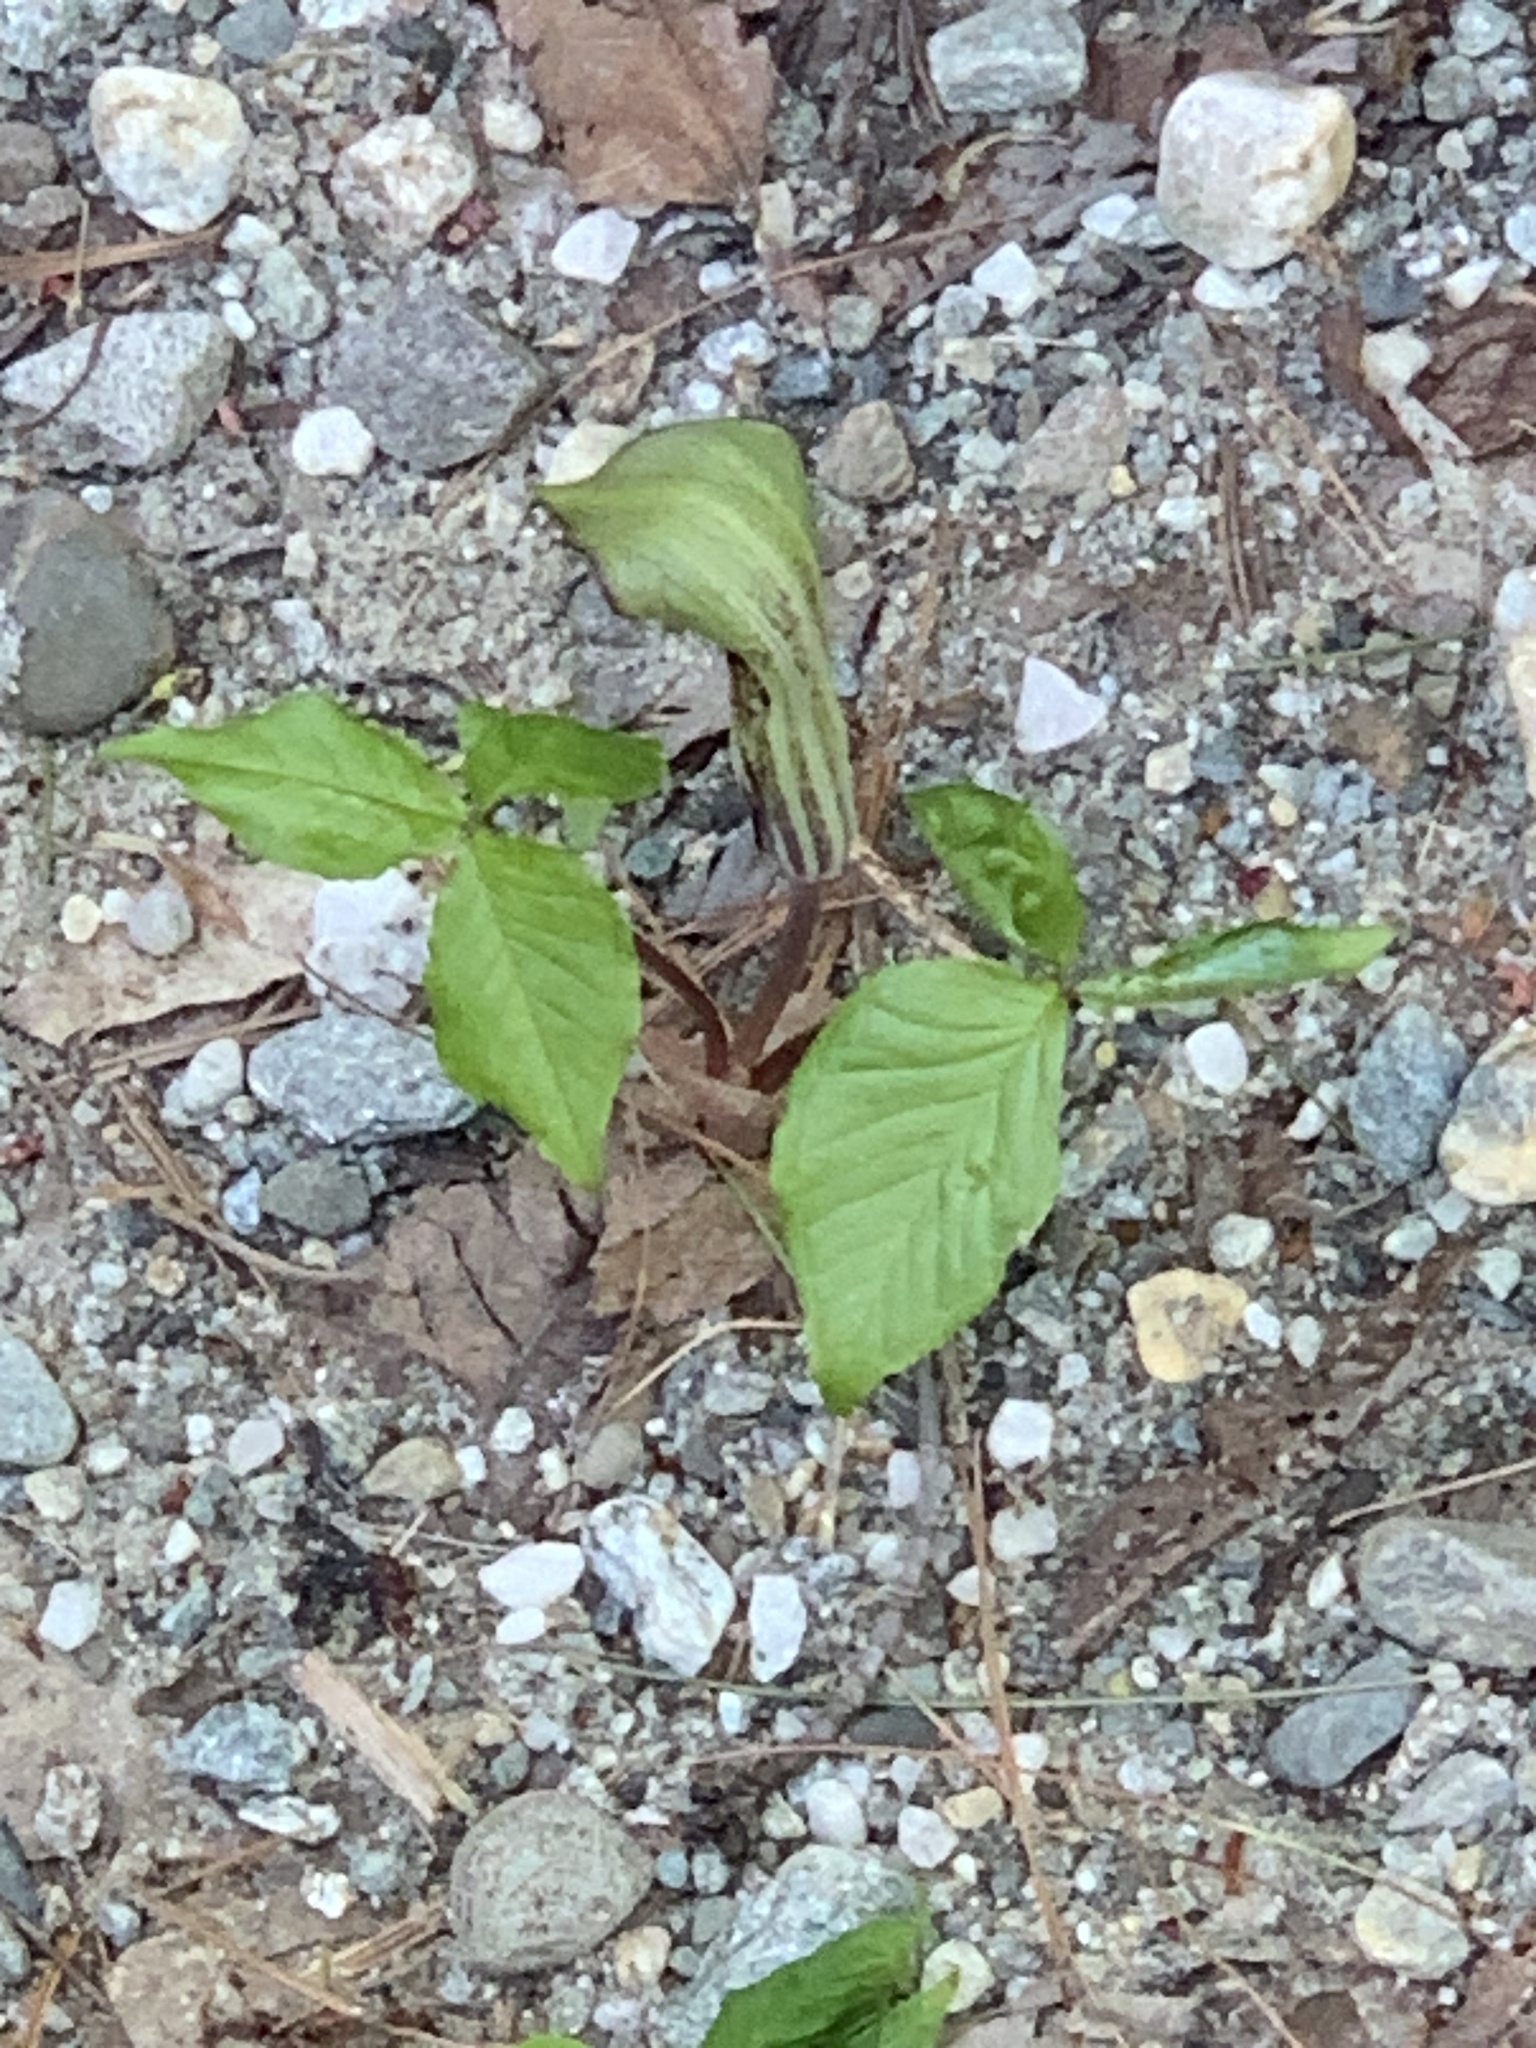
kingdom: Plantae
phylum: Tracheophyta
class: Liliopsida
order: Alismatales
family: Araceae
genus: Arisaema
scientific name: Arisaema triphyllum
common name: Jack-in-the-pulpit
